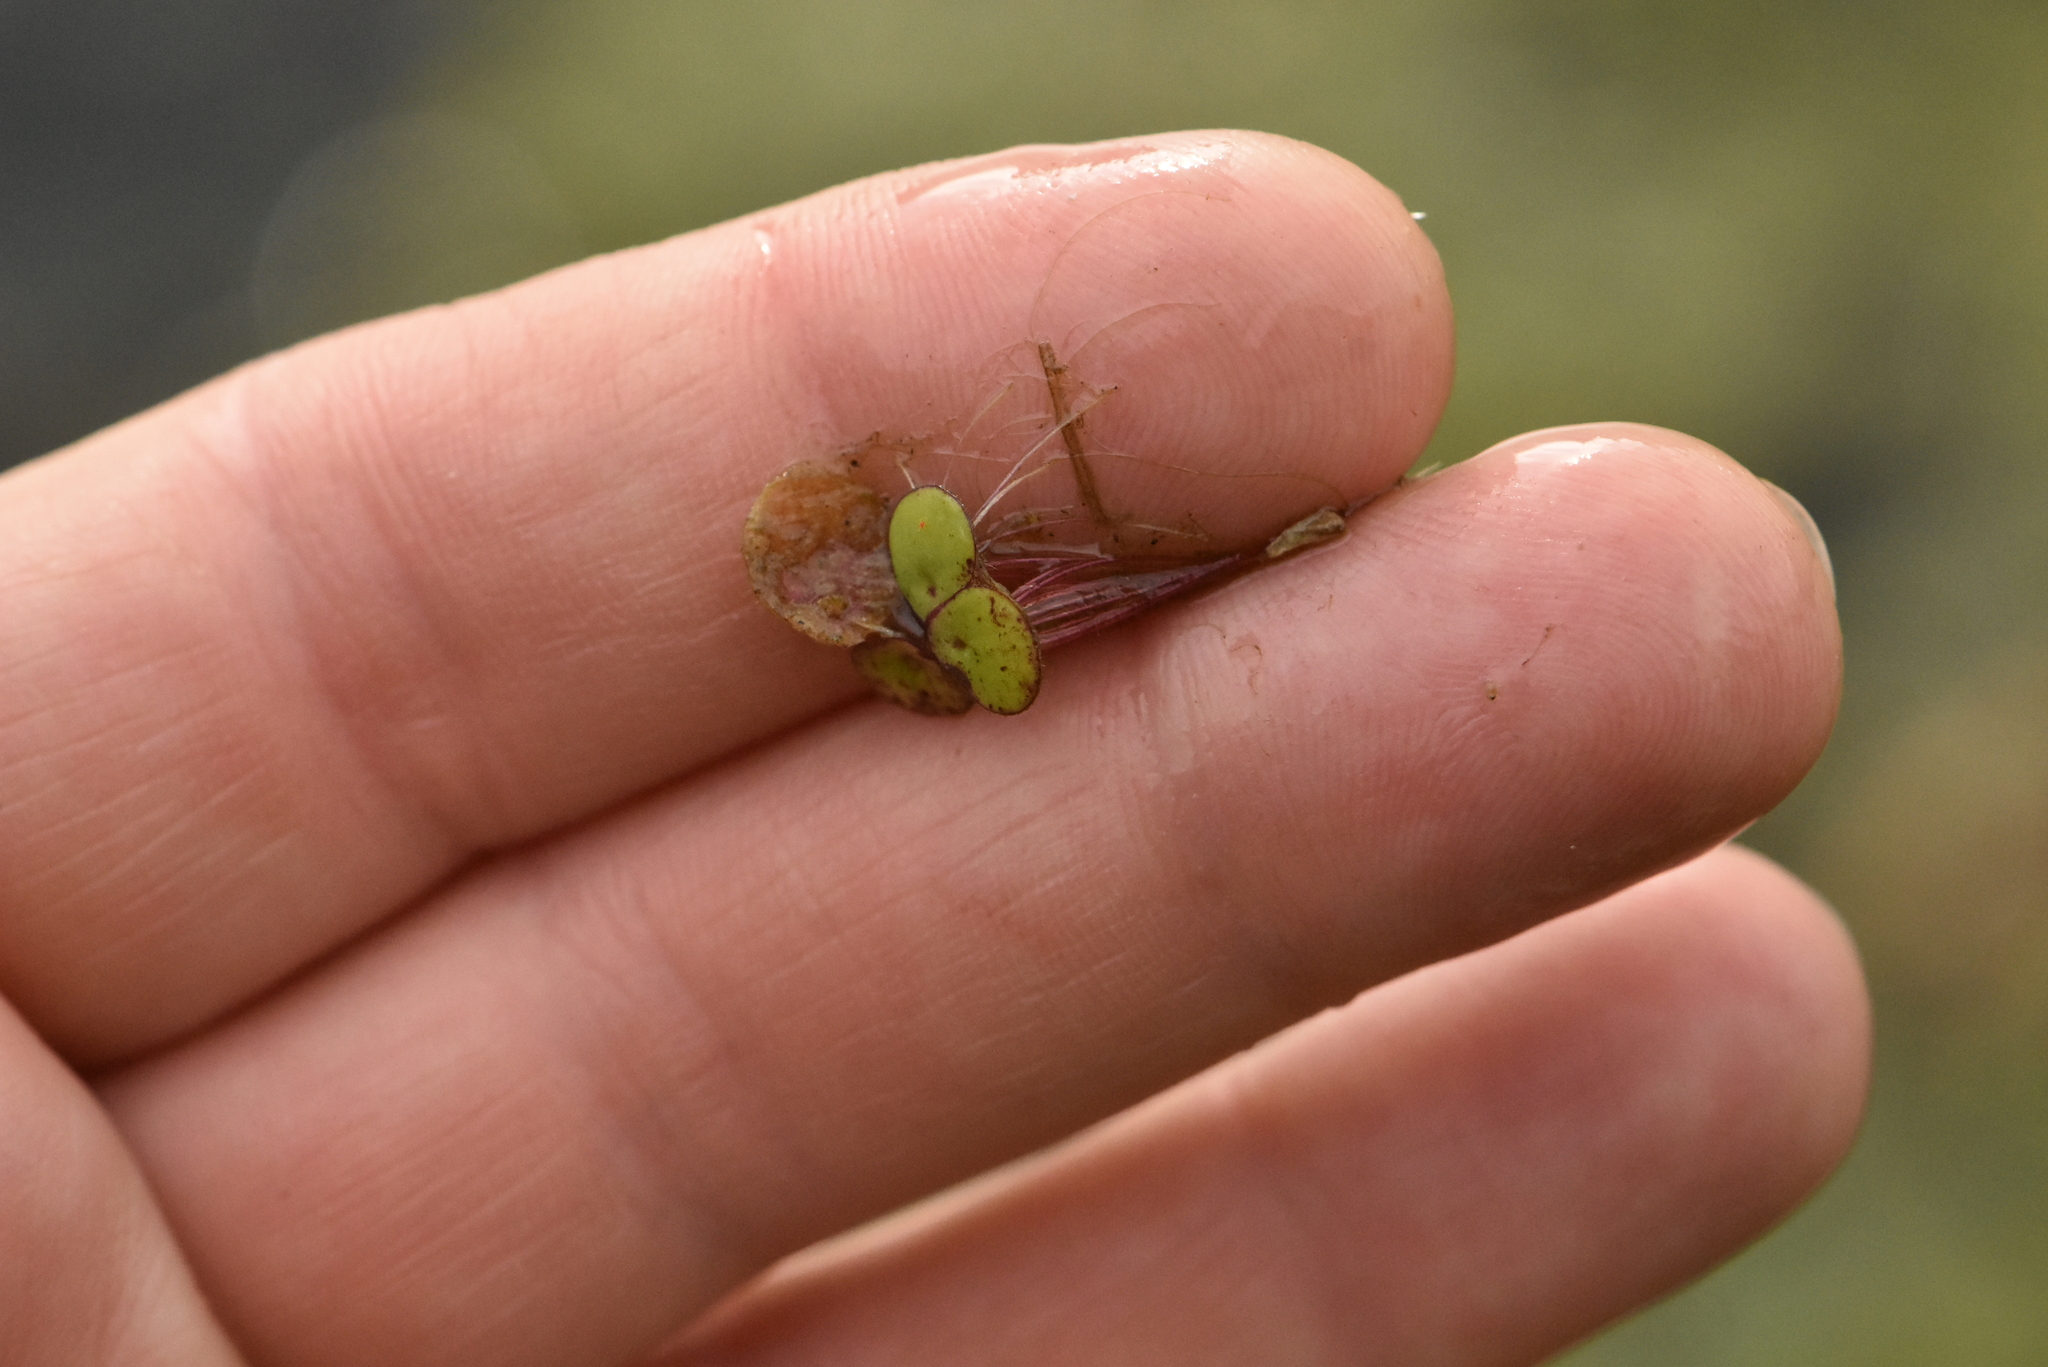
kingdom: Plantae
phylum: Tracheophyta
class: Liliopsida
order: Alismatales
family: Araceae
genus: Spirodela
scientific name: Spirodela polyrhiza
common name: Great duckweed
